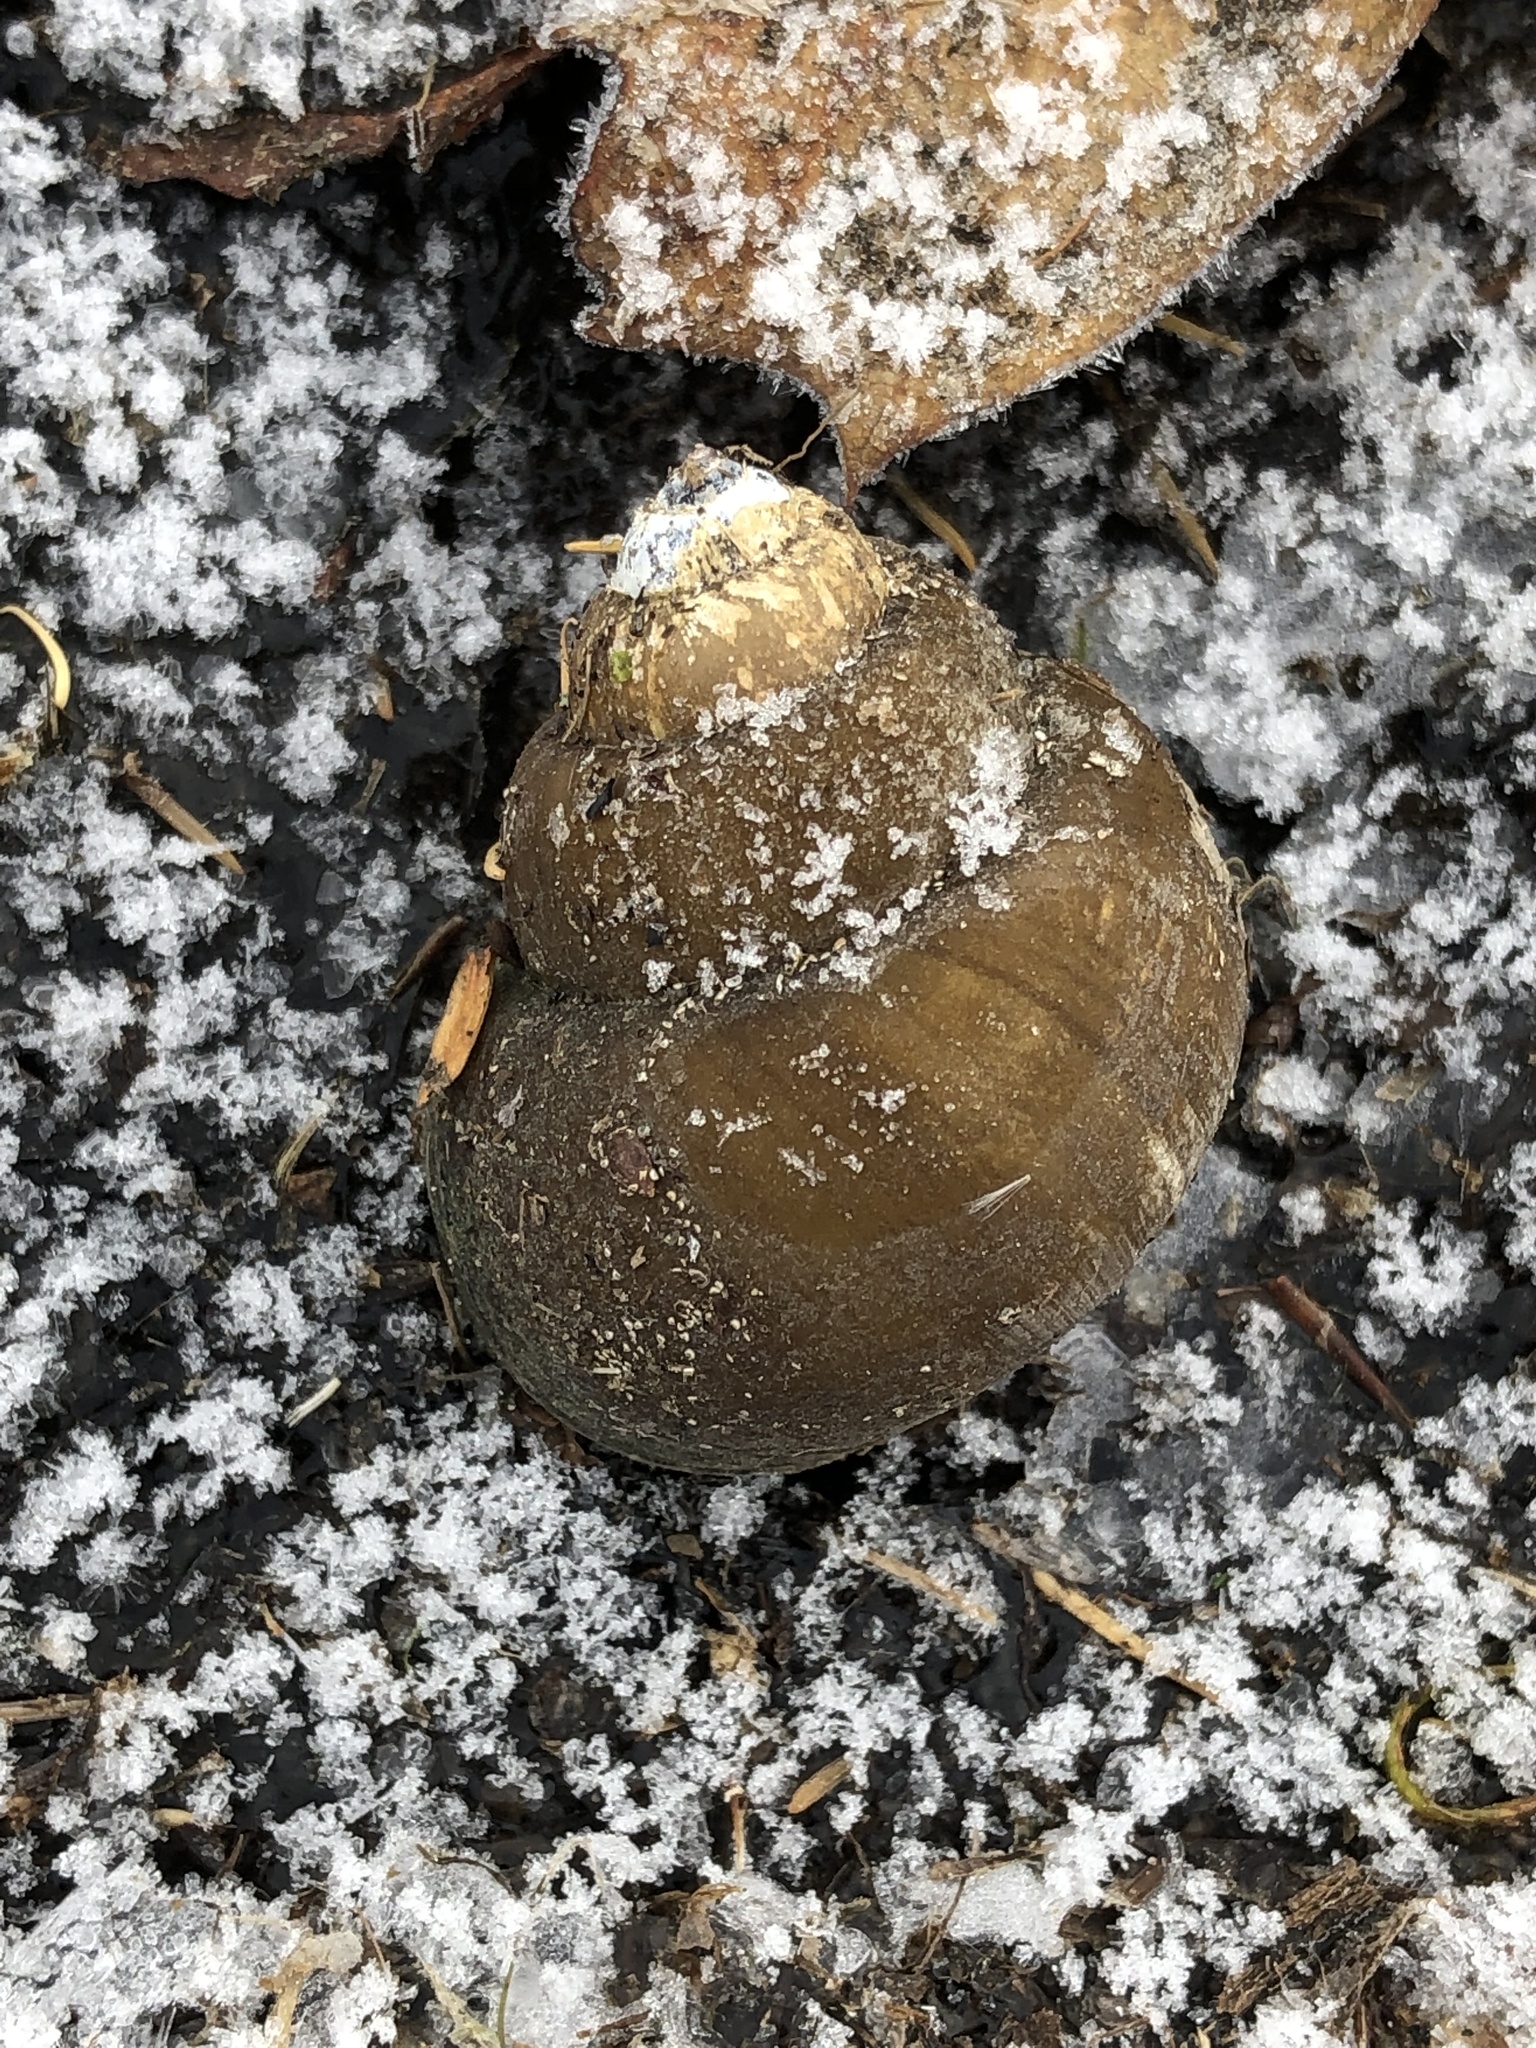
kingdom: Animalia
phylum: Mollusca
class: Gastropoda
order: Architaenioglossa
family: Viviparidae
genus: Cipangopaludina
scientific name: Cipangopaludina chinensis
